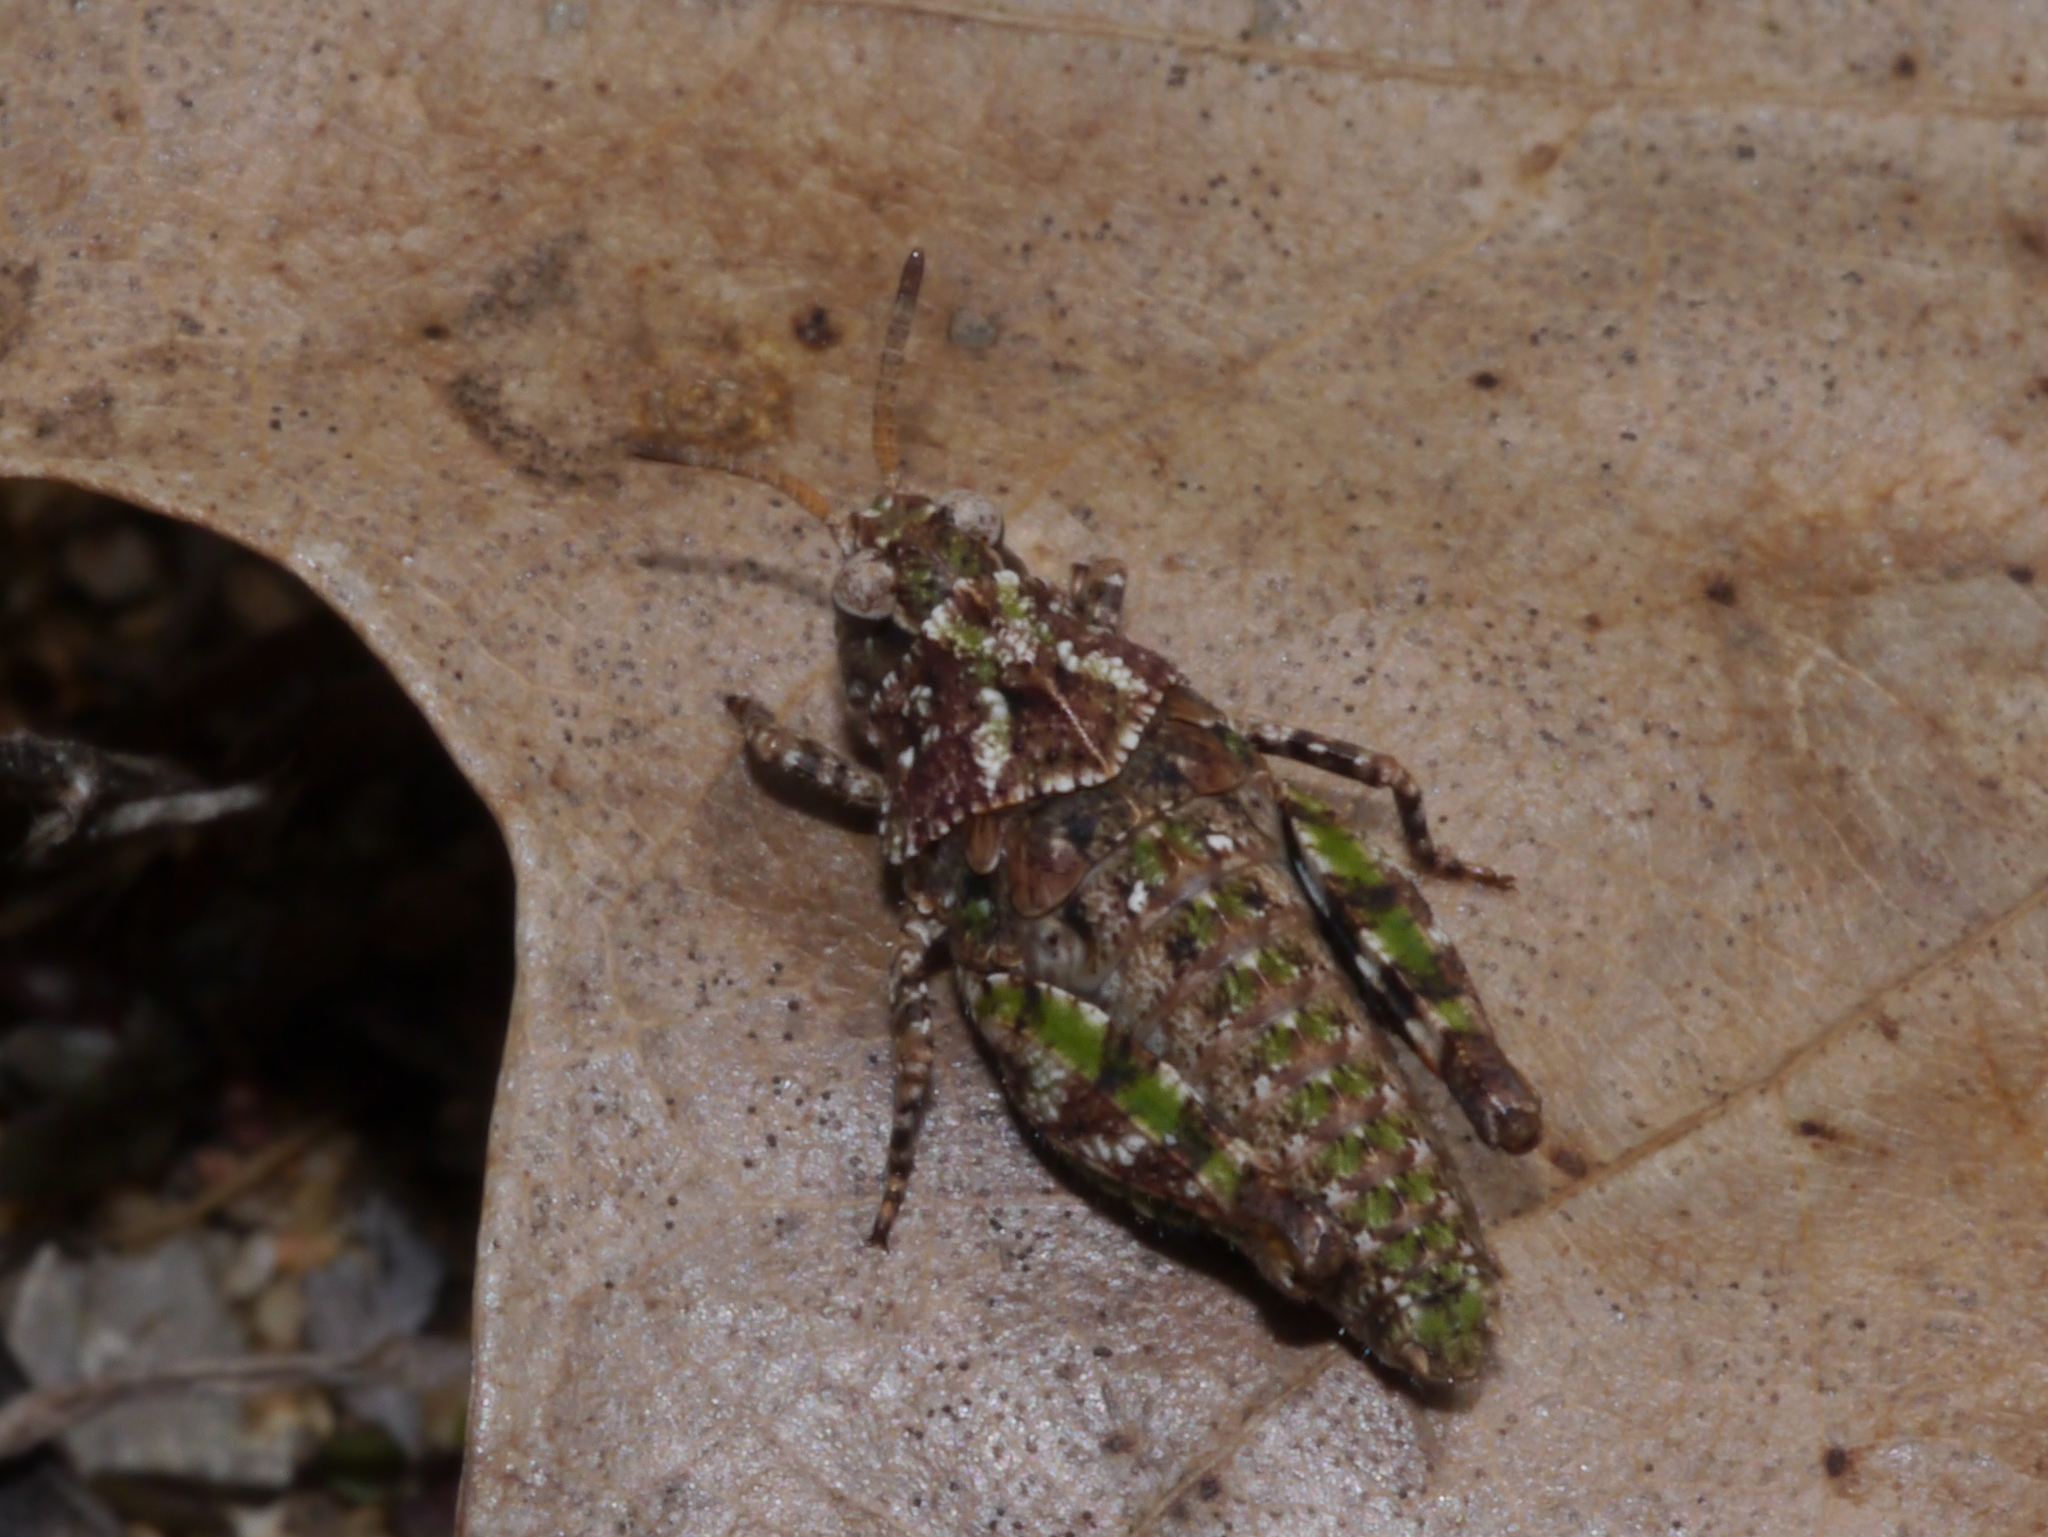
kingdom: Animalia
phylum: Arthropoda
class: Insecta
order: Orthoptera
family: Acrididae
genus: Pardalophora
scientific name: Pardalophora phoenicoptera
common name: Orange-winged grasshopper
